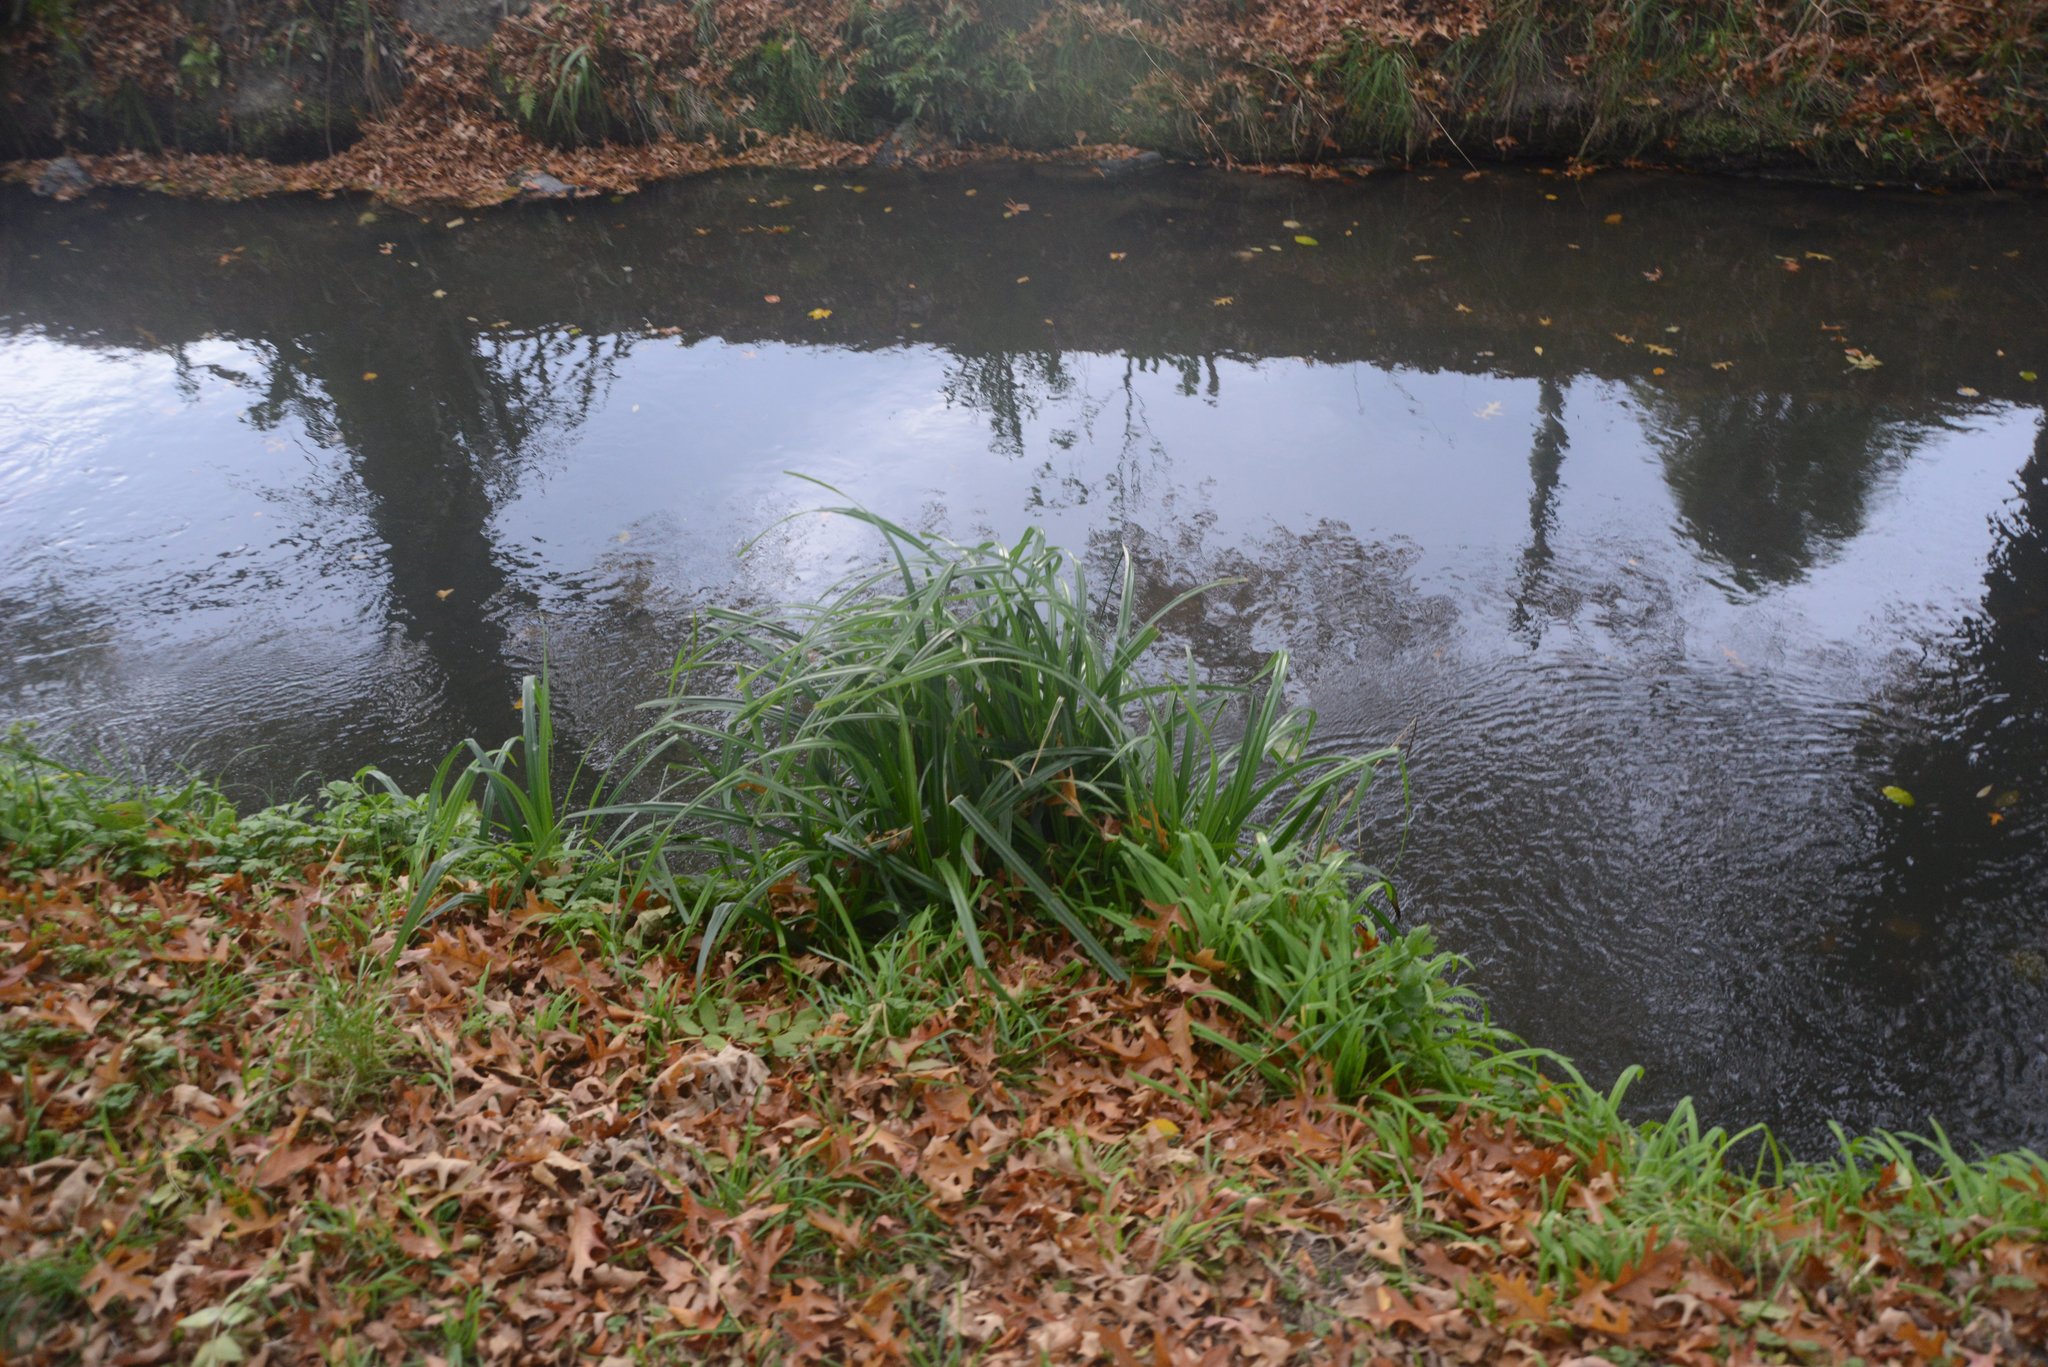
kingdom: Plantae
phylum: Tracheophyta
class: Liliopsida
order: Poales
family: Cyperaceae
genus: Carex
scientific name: Carex pendula
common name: Pendulous sedge
